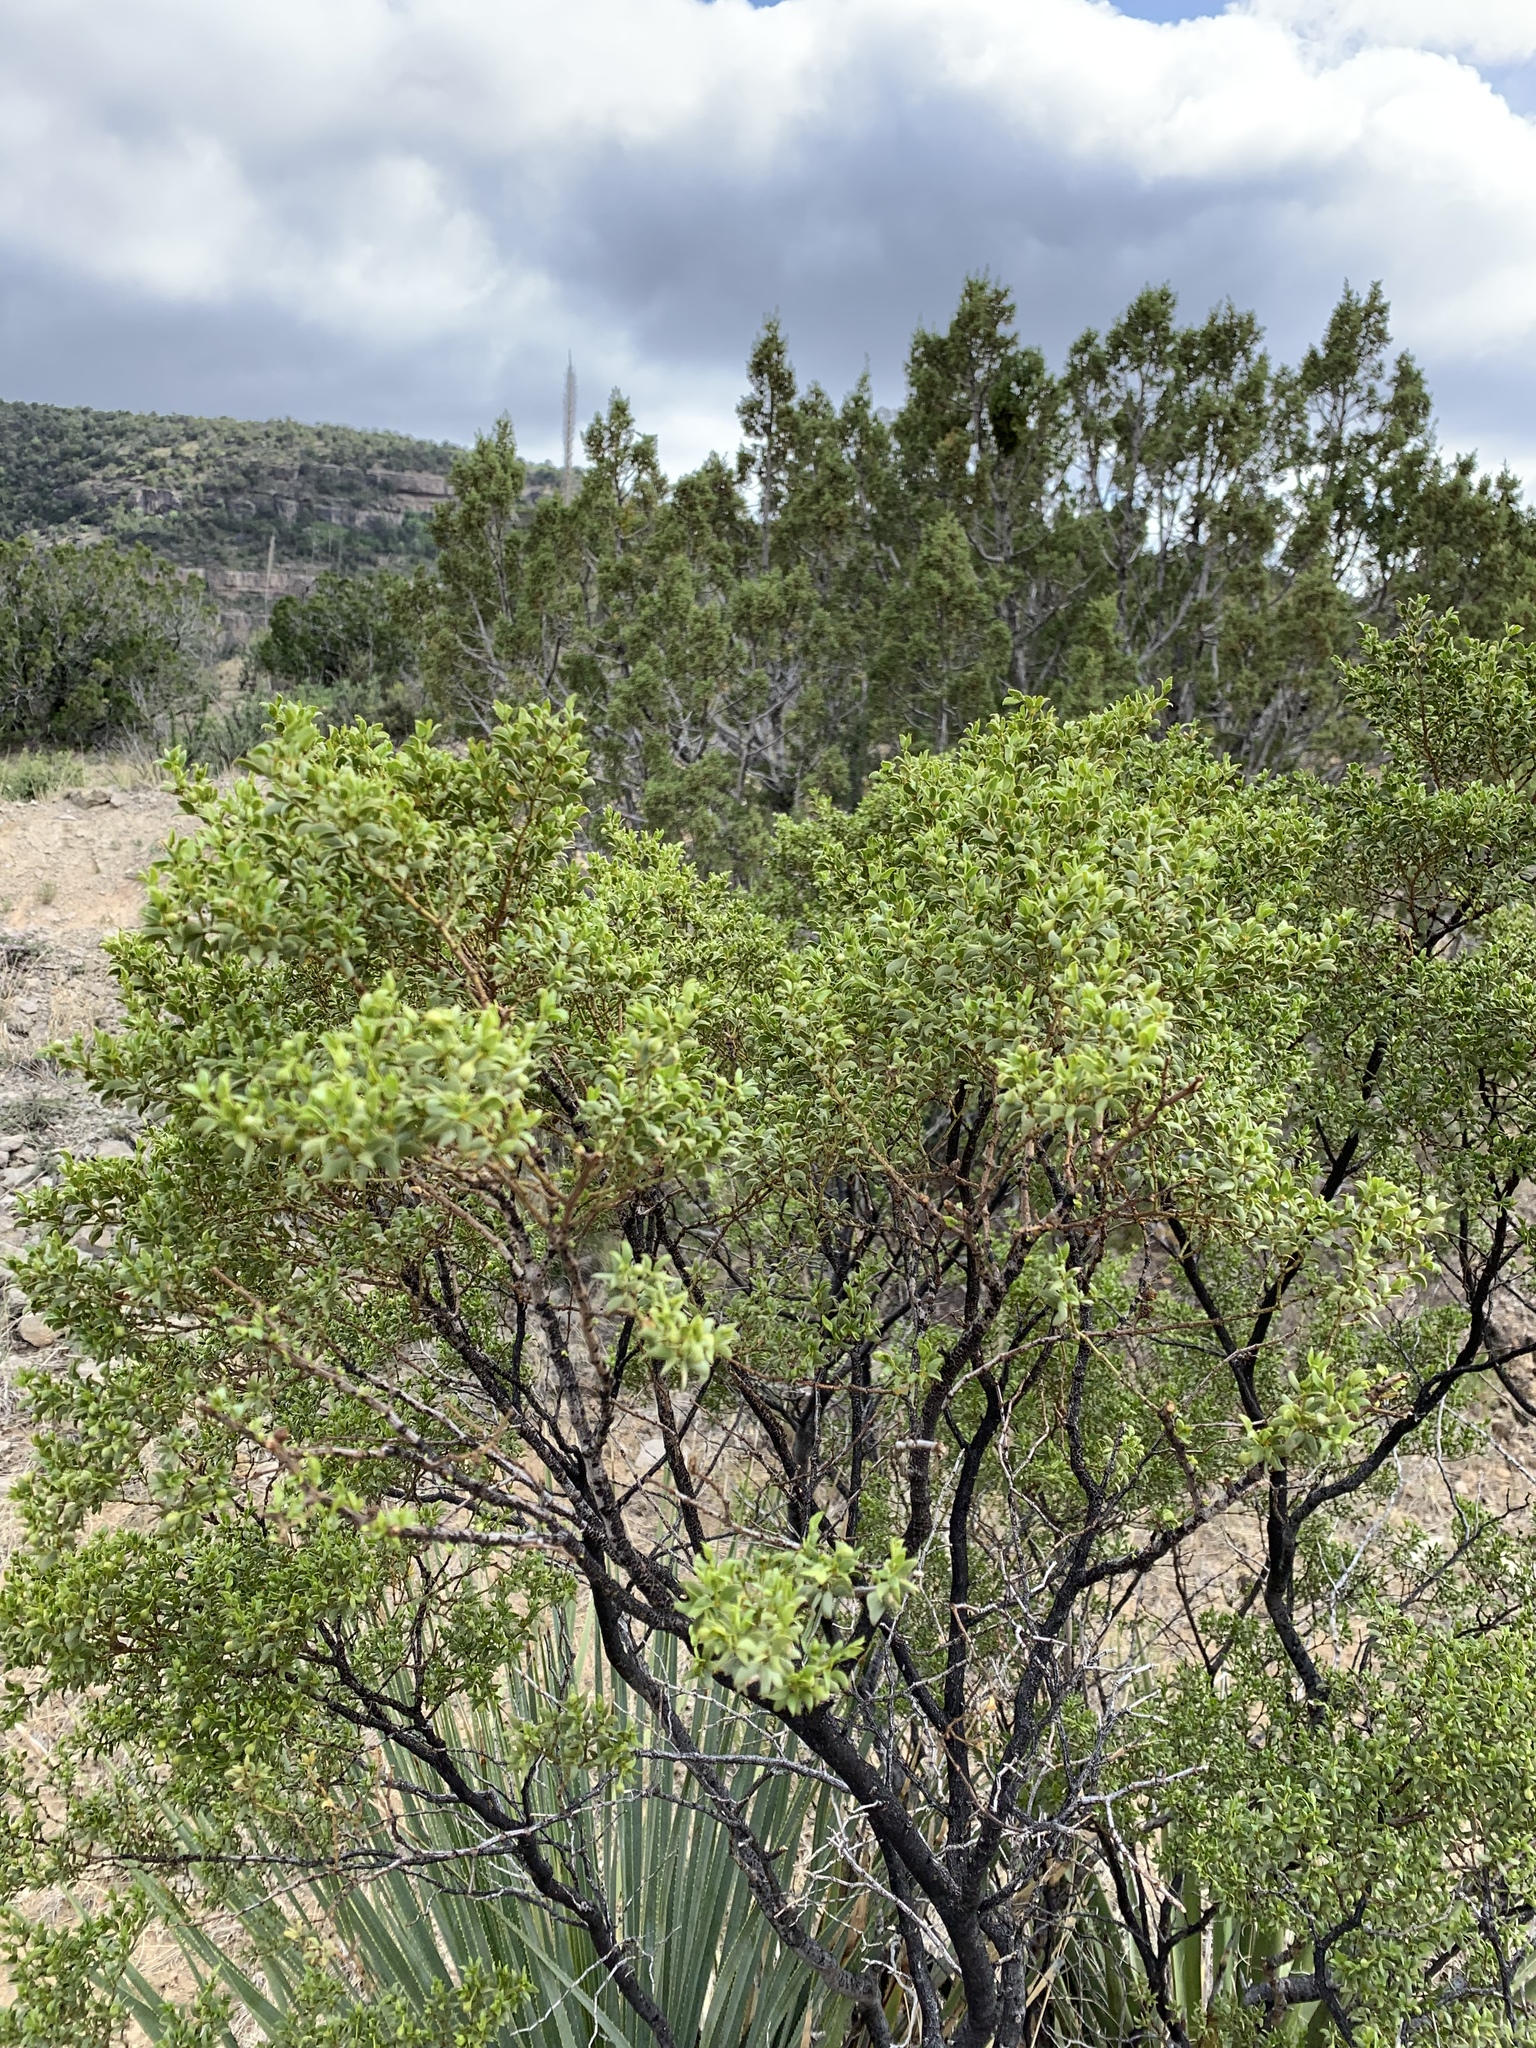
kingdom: Plantae
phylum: Tracheophyta
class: Magnoliopsida
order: Zygophyllales
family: Zygophyllaceae
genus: Larrea
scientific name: Larrea tridentata
